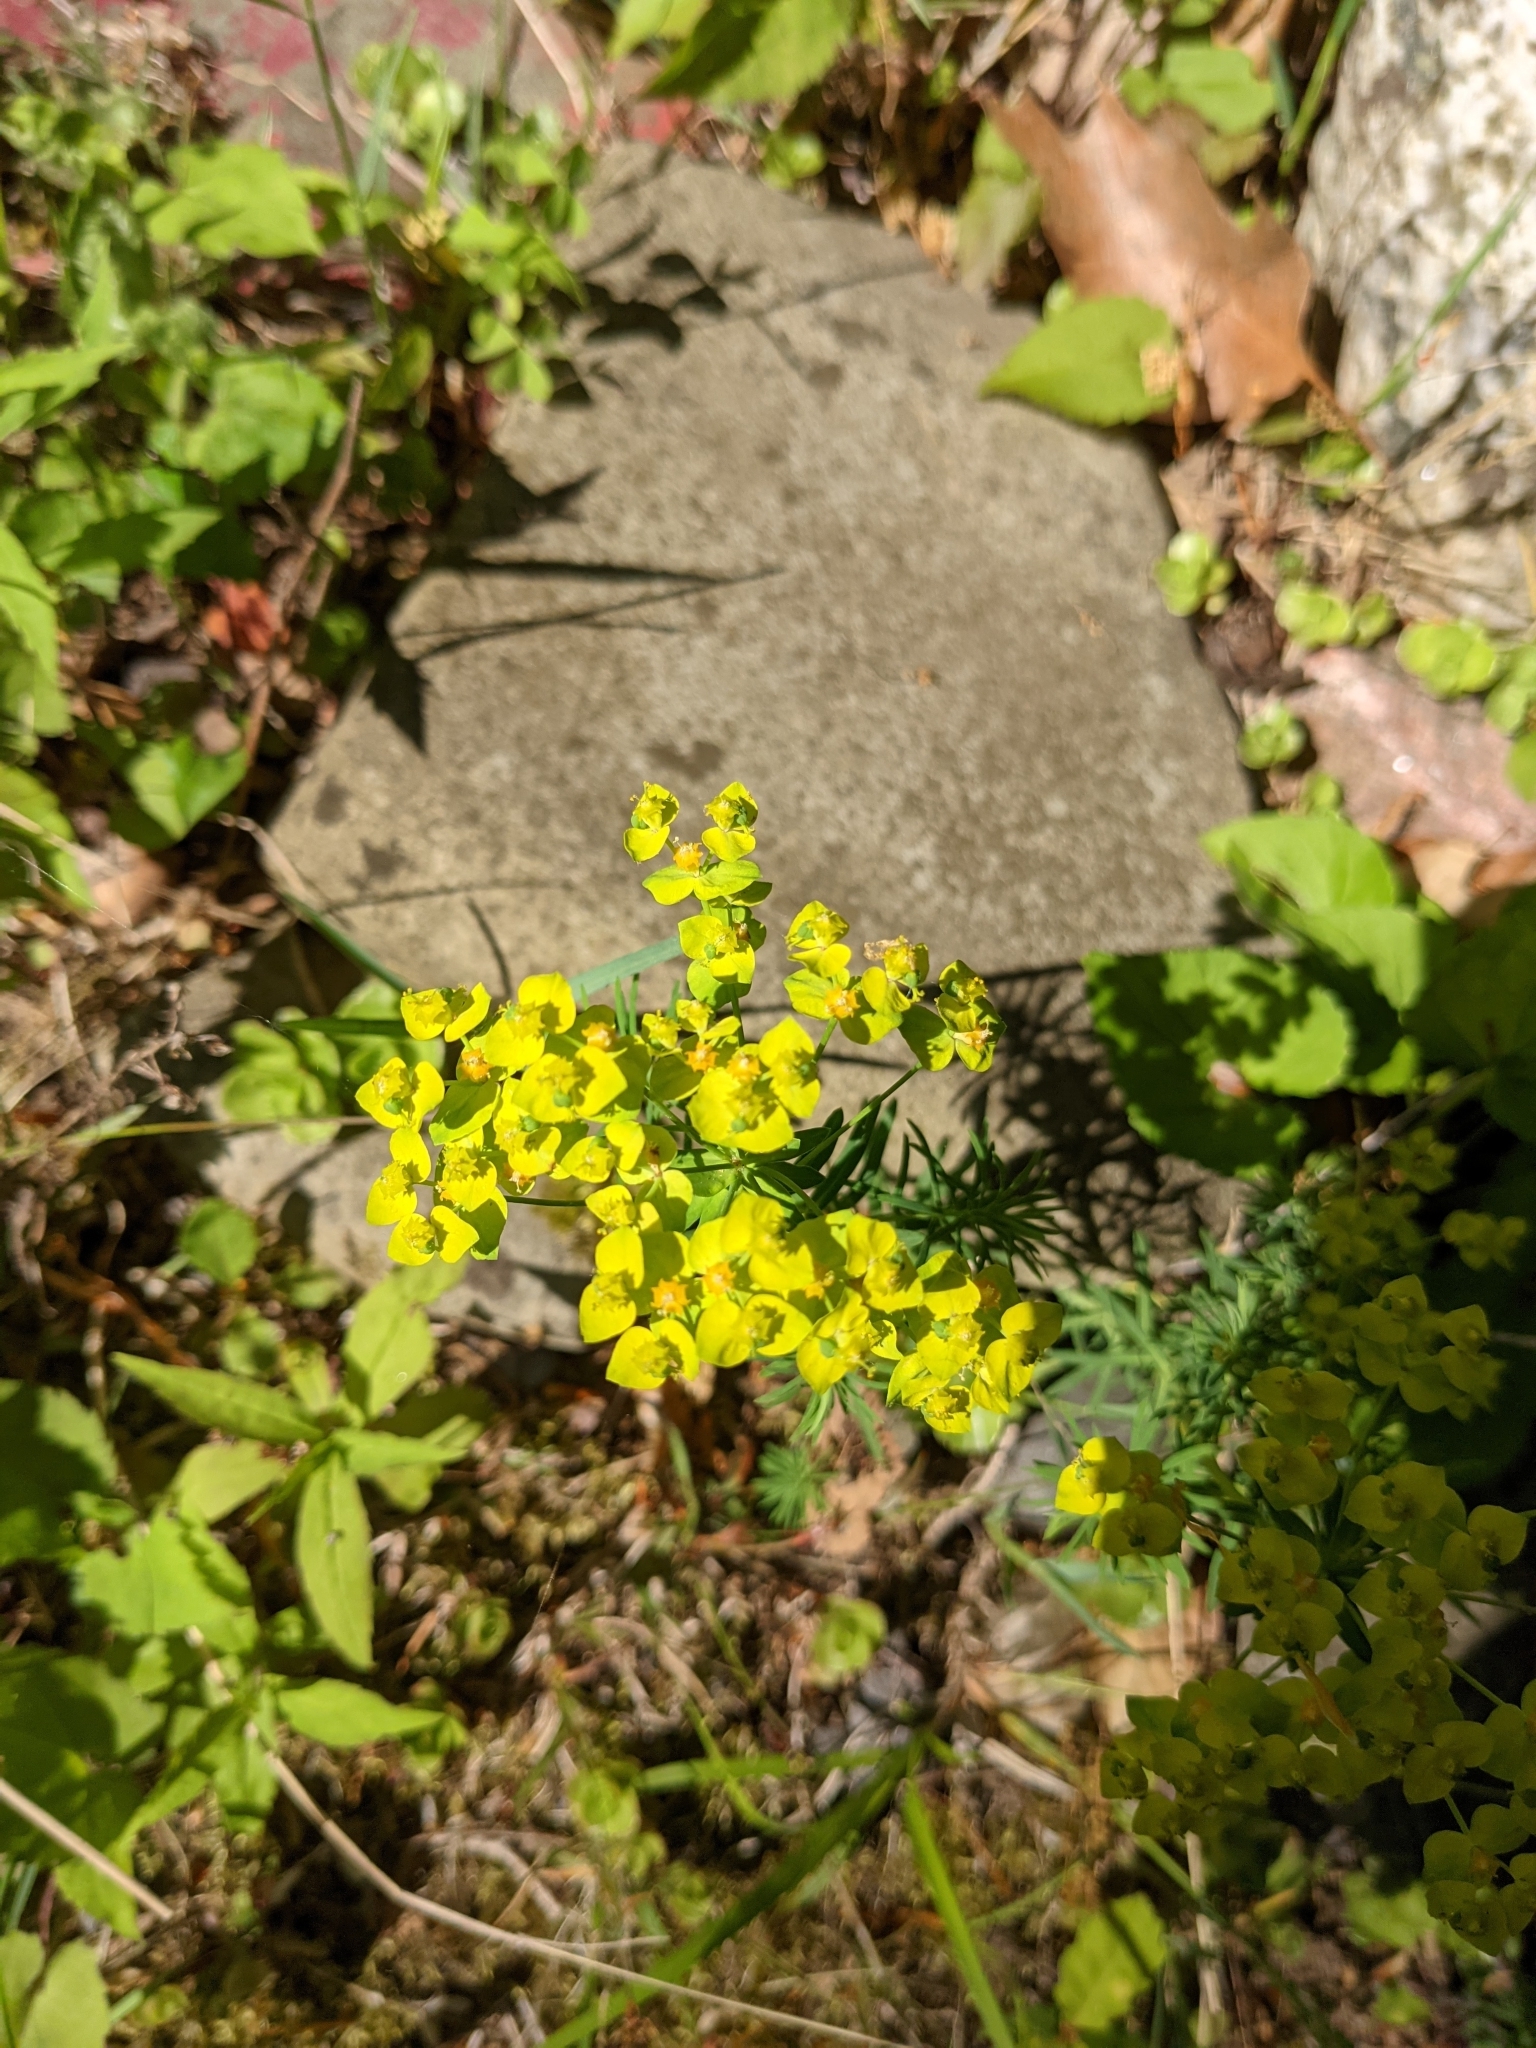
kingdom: Plantae
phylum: Tracheophyta
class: Magnoliopsida
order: Malpighiales
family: Euphorbiaceae
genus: Euphorbia
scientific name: Euphorbia cyparissias
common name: Cypress spurge
